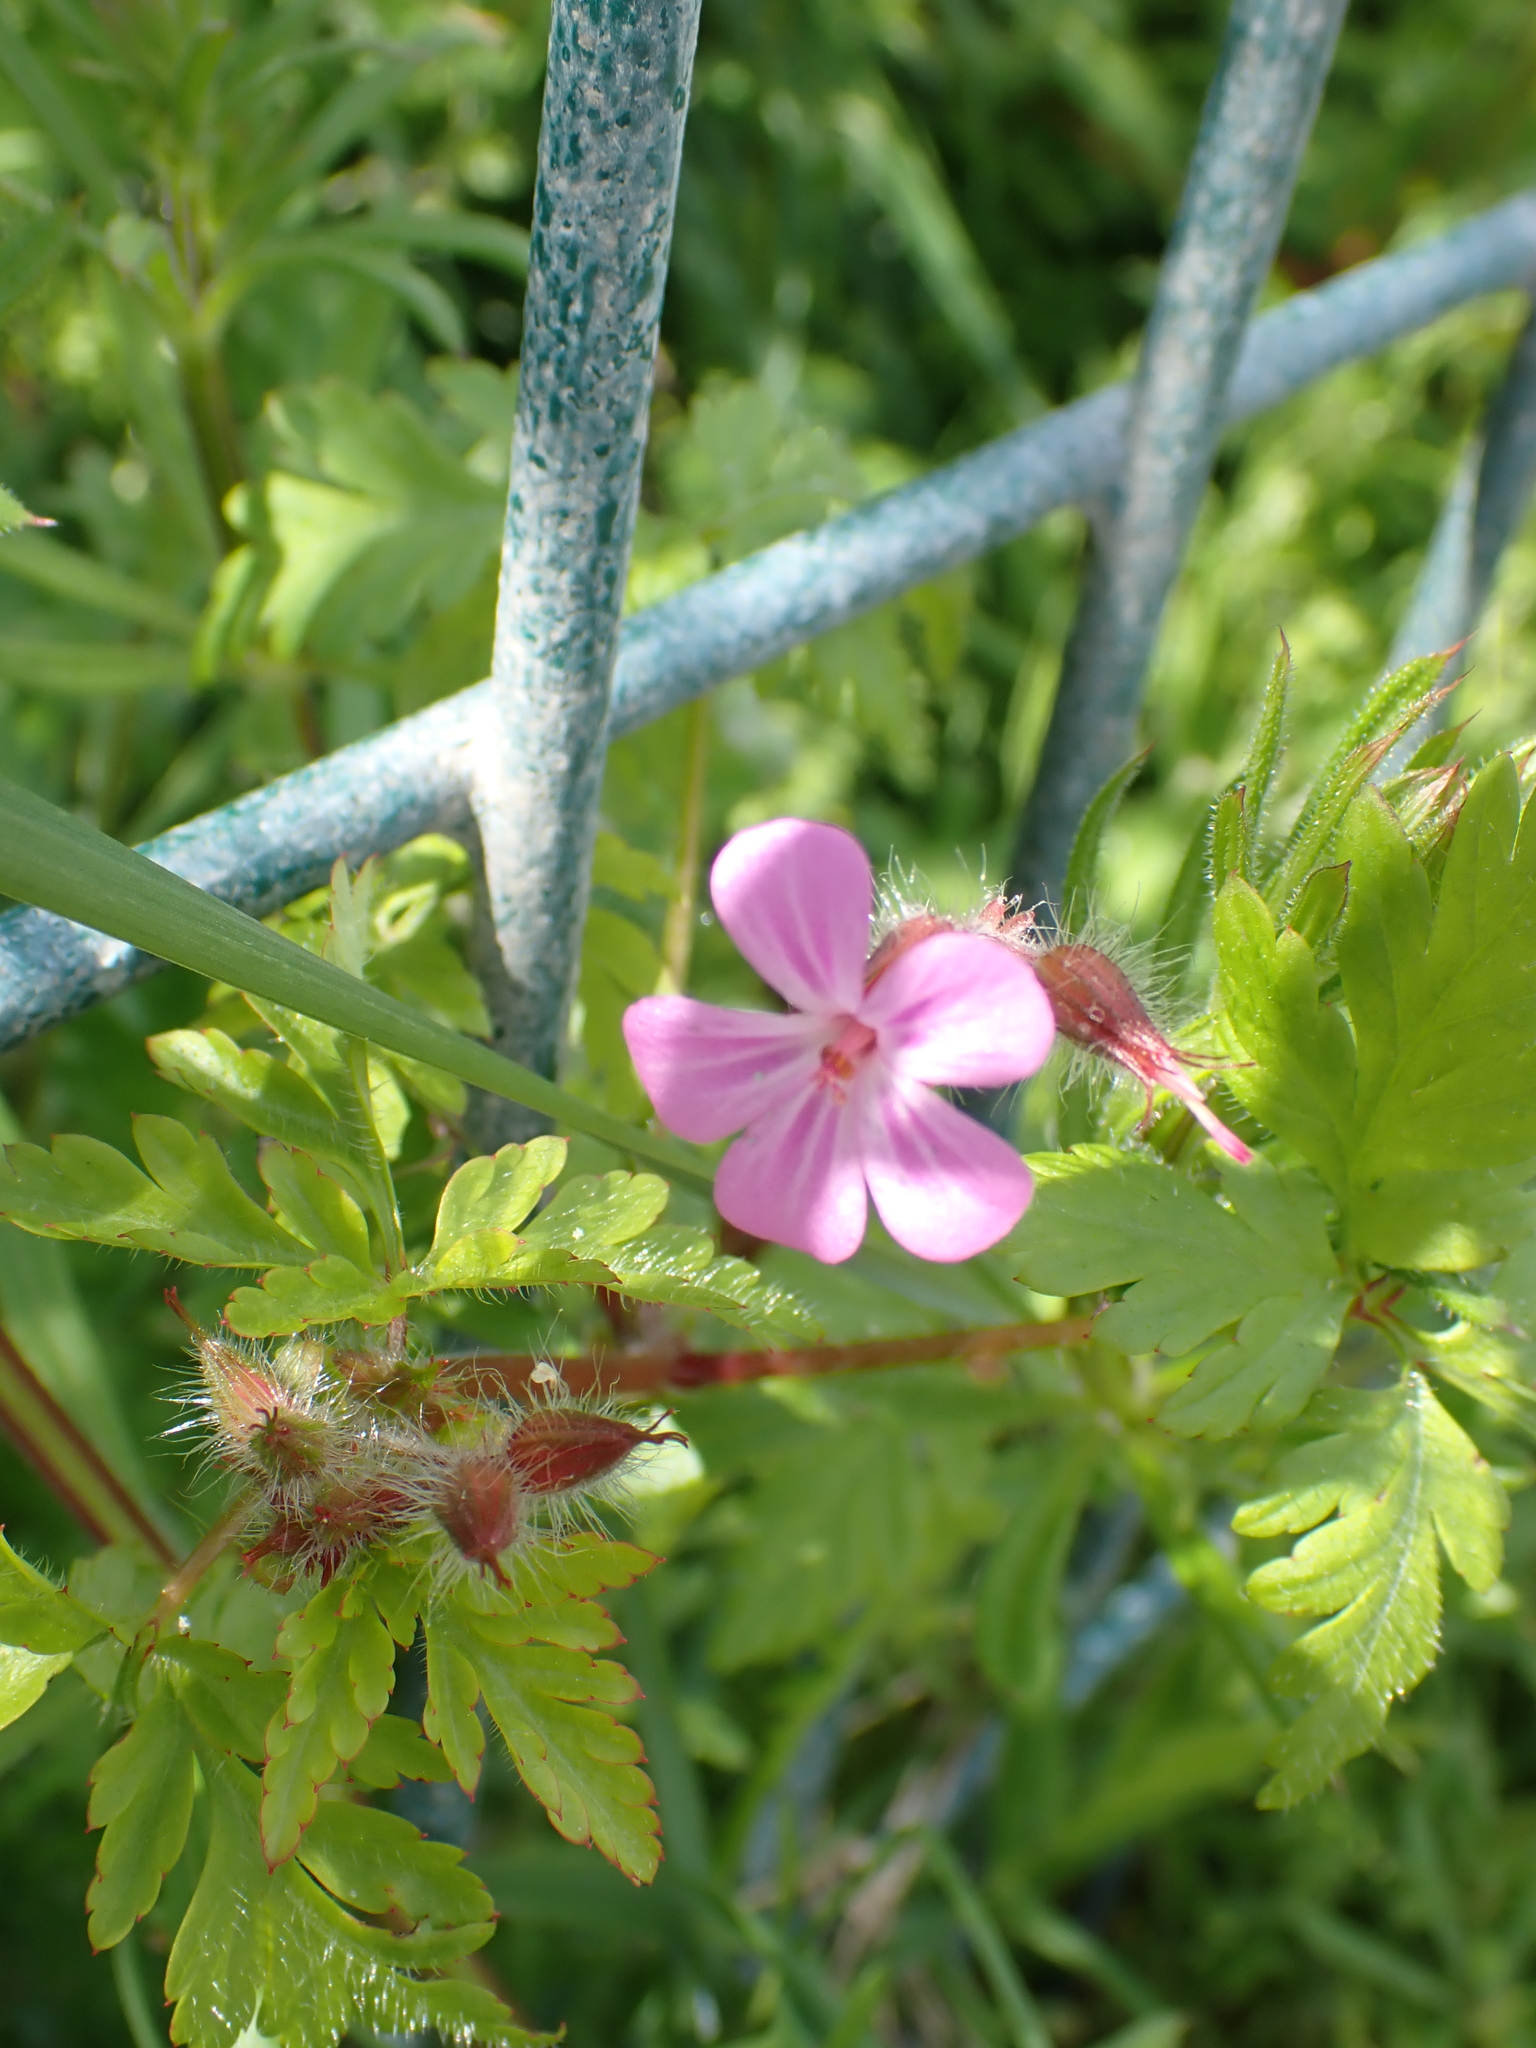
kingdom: Plantae
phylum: Tracheophyta
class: Magnoliopsida
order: Geraniales
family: Geraniaceae
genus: Geranium
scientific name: Geranium robertianum
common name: Herb-robert
